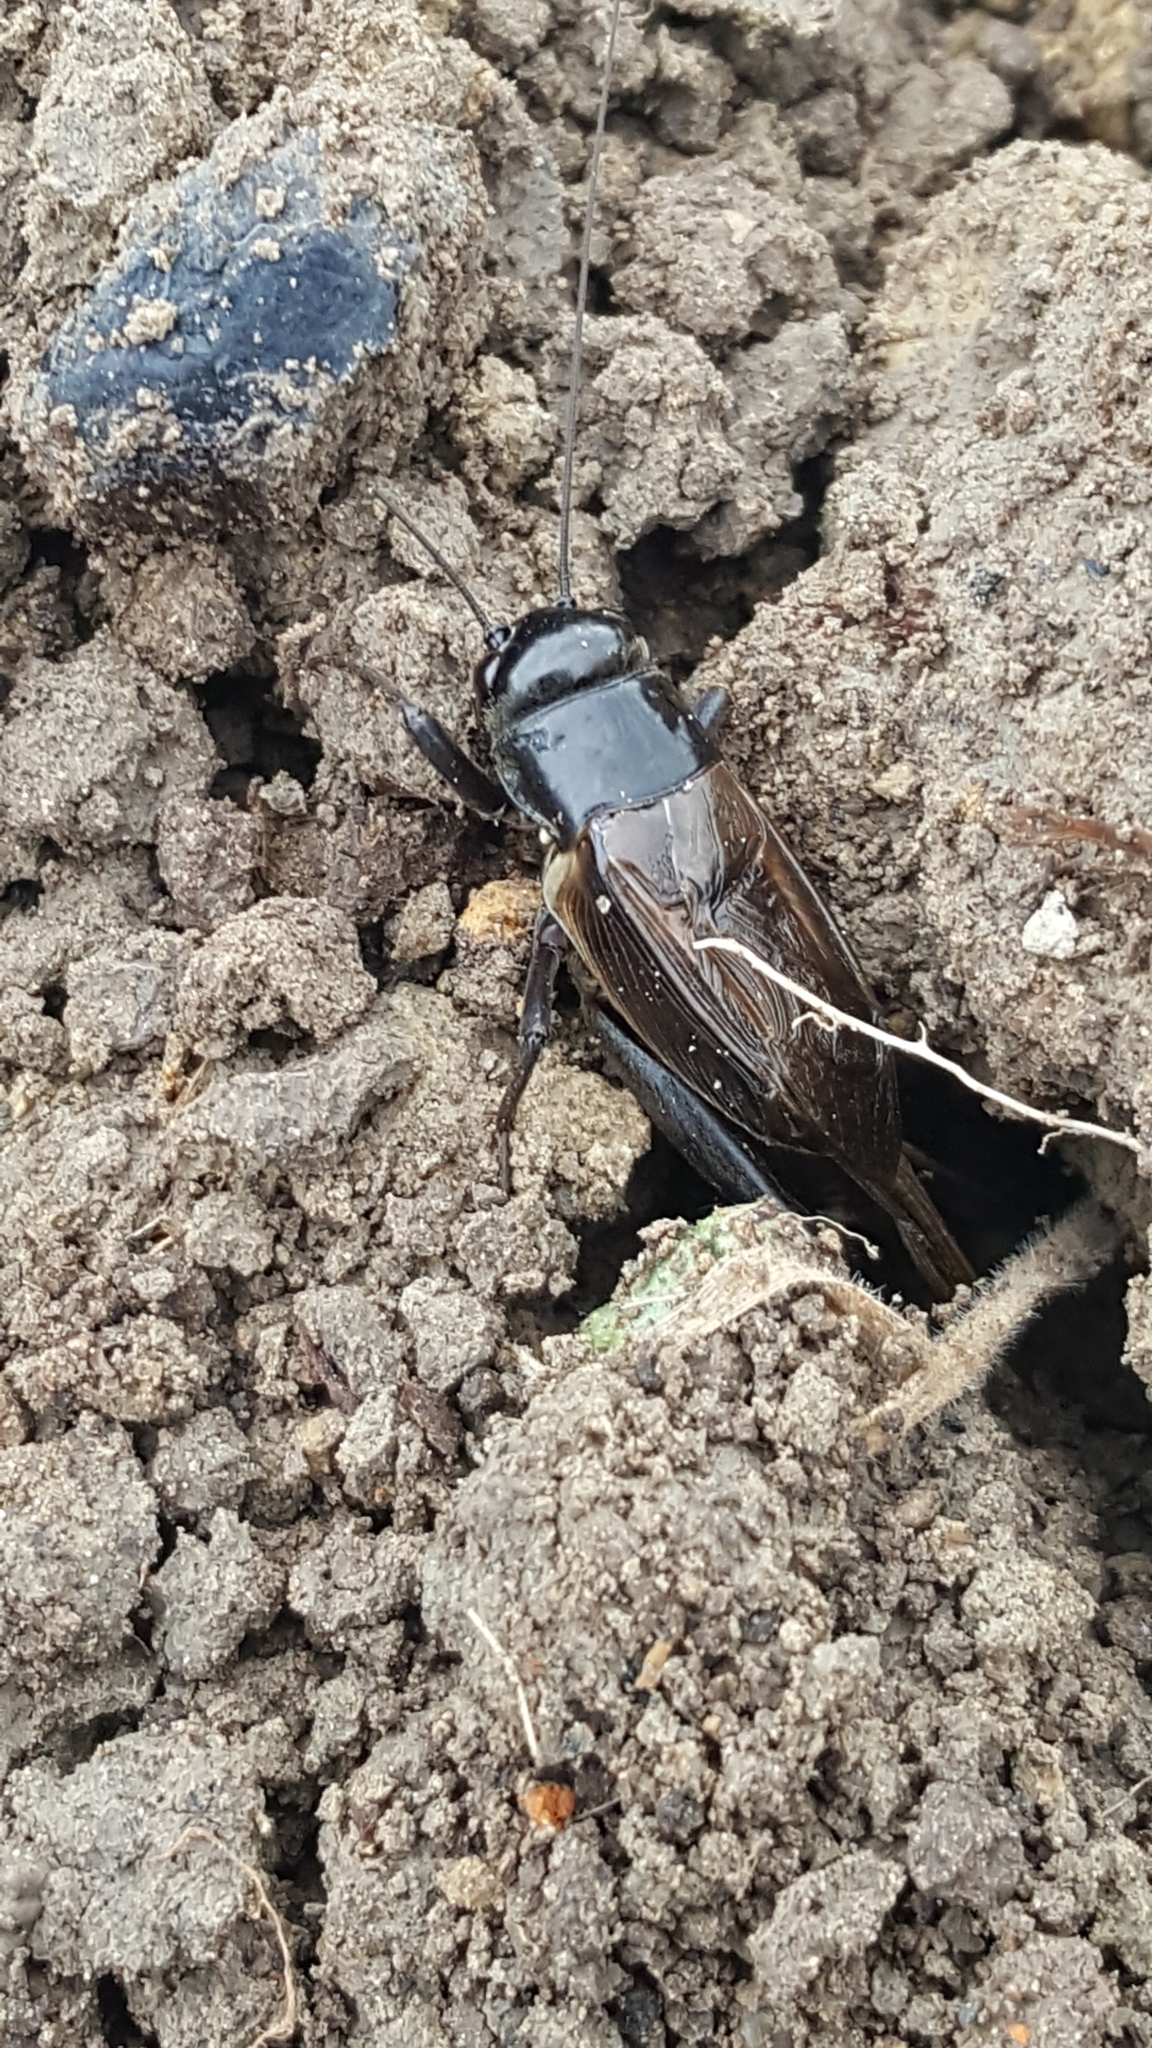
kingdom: Animalia
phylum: Arthropoda
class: Insecta
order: Orthoptera
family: Gryllidae
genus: Teleogryllus
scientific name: Teleogryllus commodus
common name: Black field cricket
